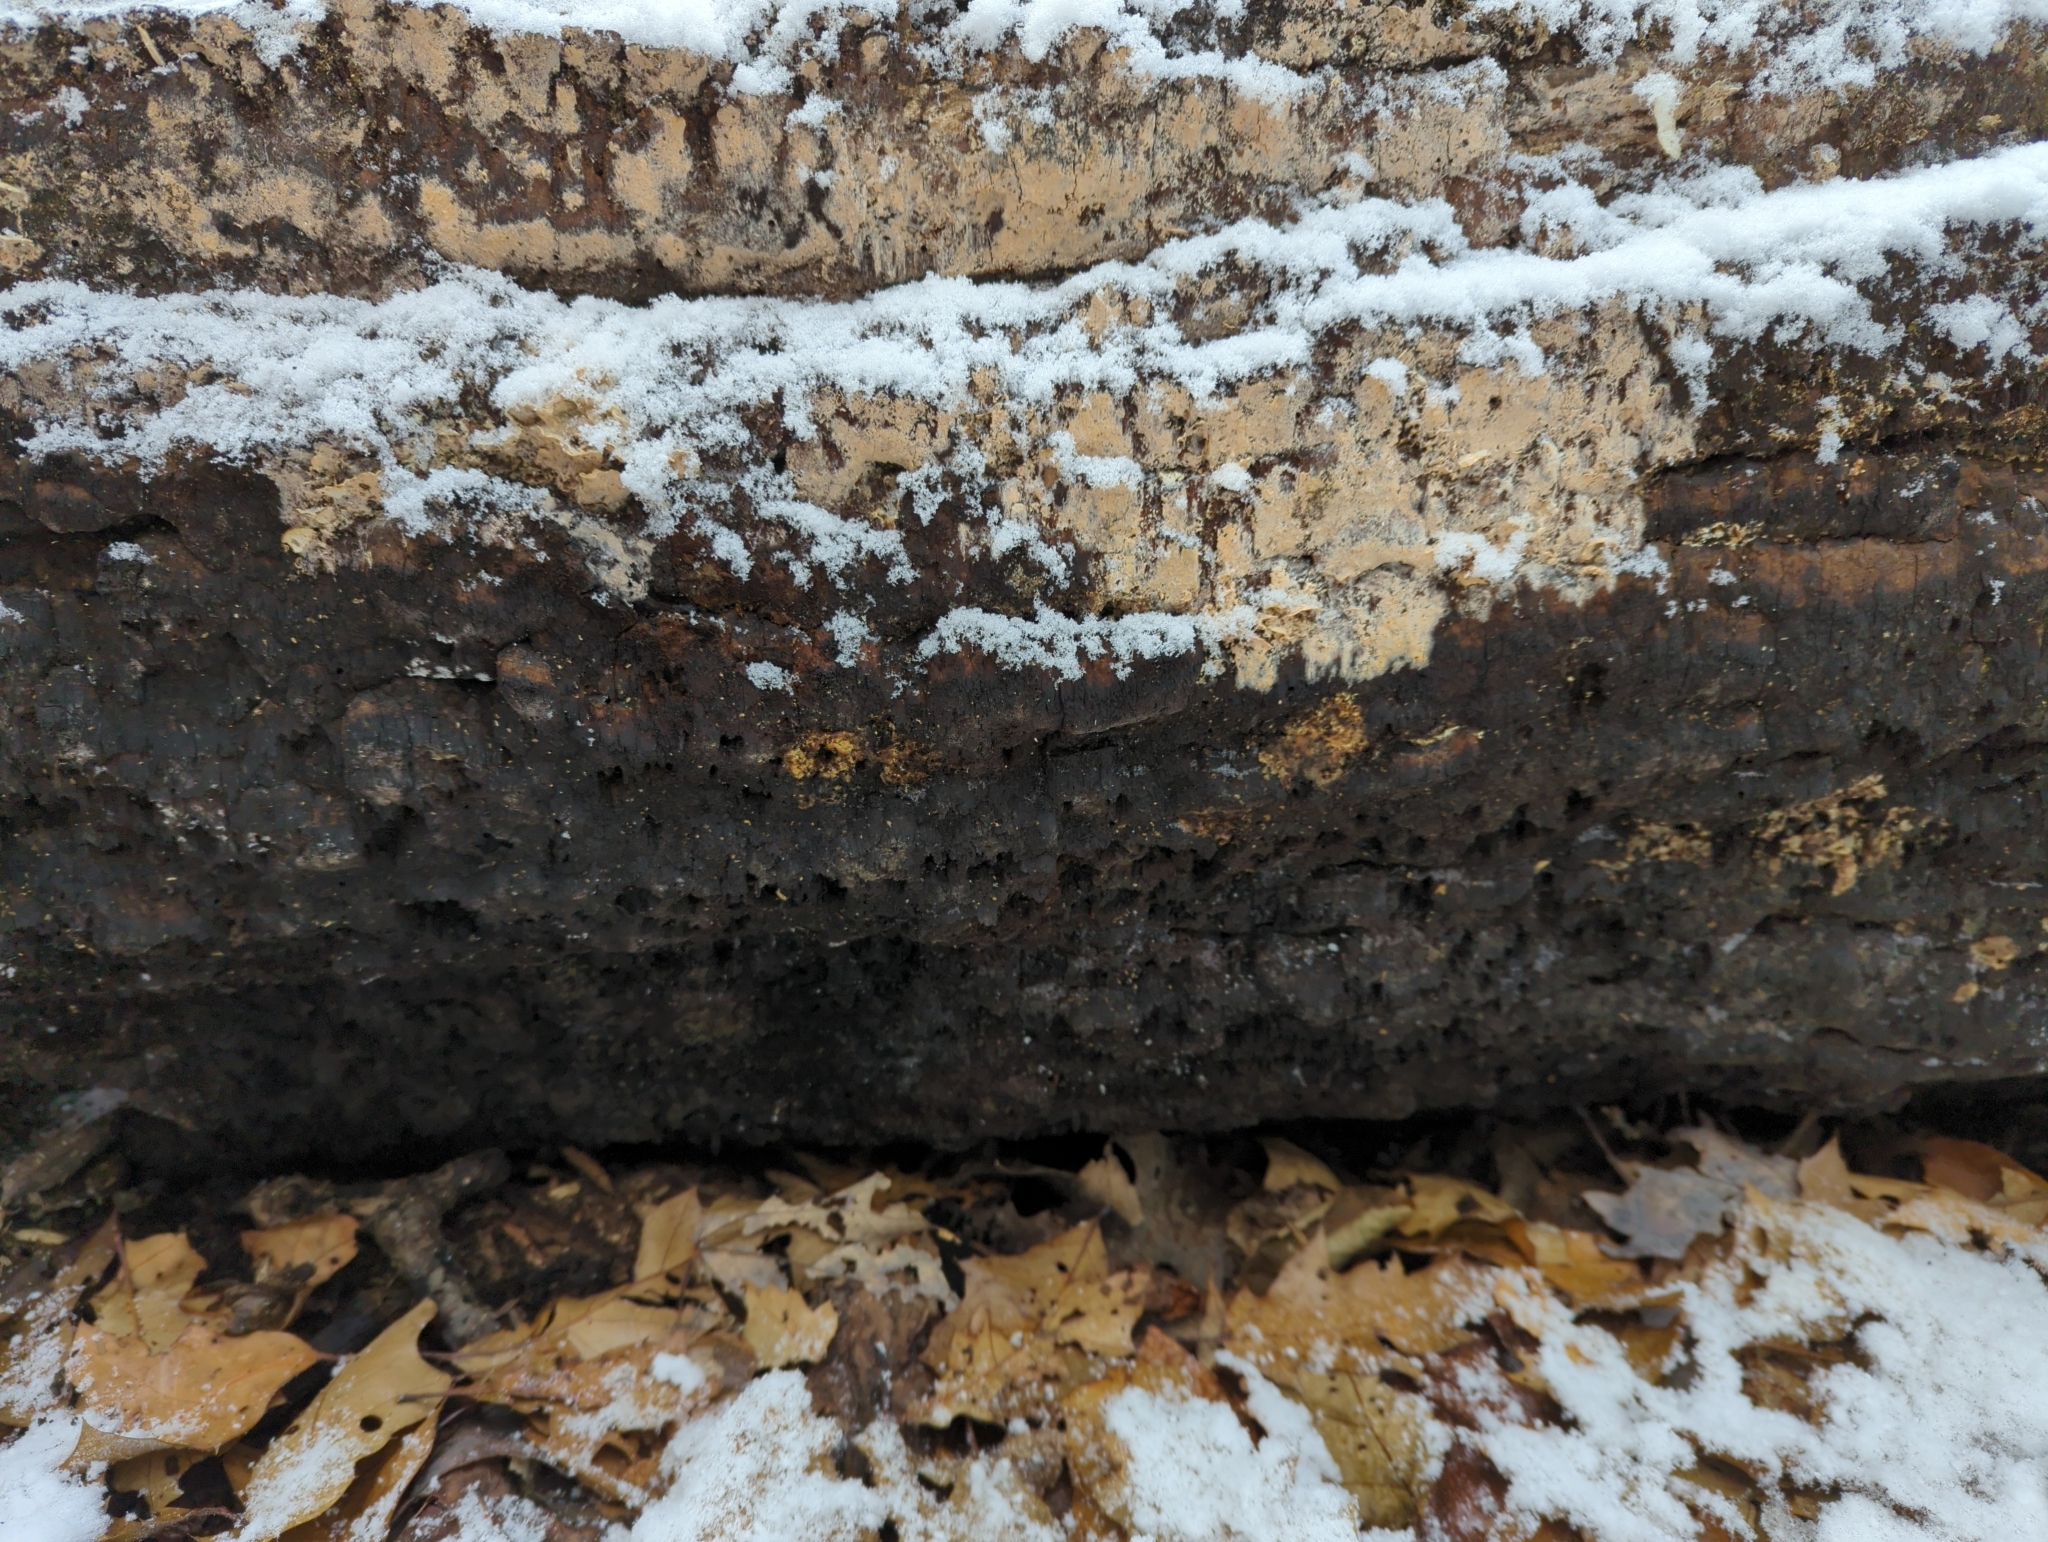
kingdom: Fungi
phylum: Basidiomycota
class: Agaricomycetes
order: Hymenochaetales
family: Hymenochaetaceae
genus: Rigidonotus
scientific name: Rigidonotus glomeratus
